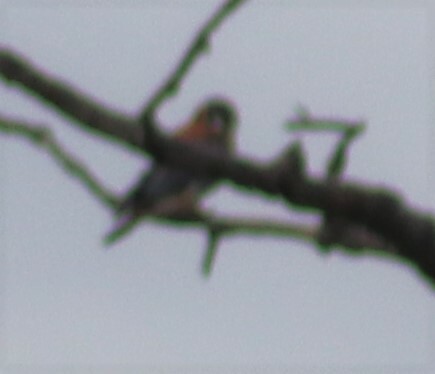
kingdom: Animalia
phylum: Chordata
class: Aves
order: Falconiformes
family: Falconidae
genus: Falco
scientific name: Falco sparverius
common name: American kestrel
